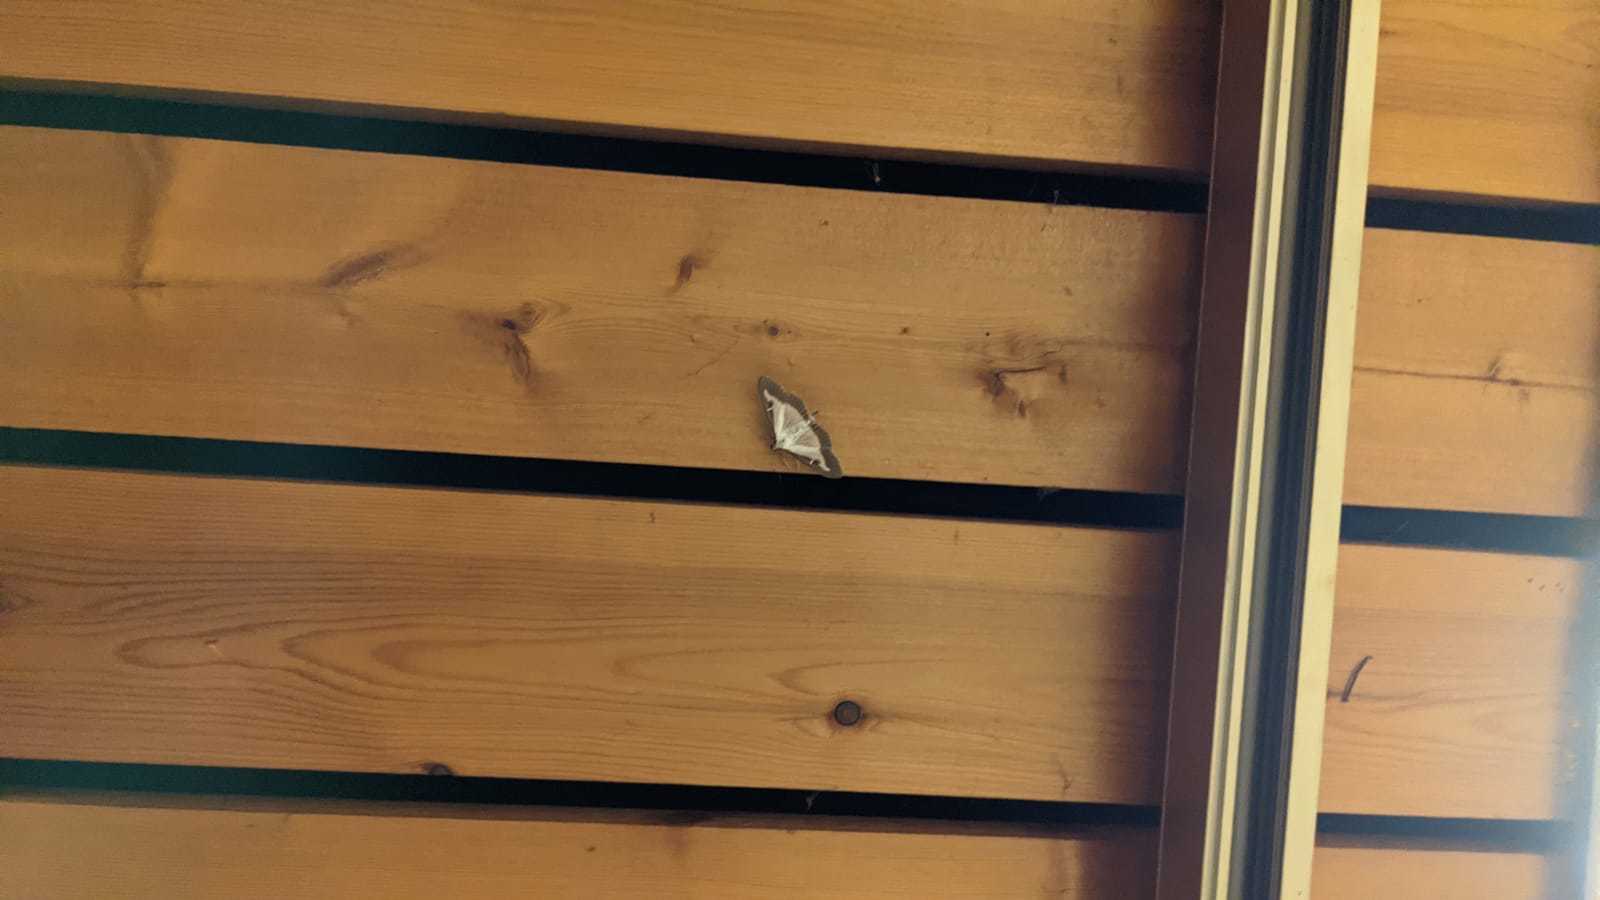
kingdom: Animalia
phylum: Arthropoda
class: Insecta
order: Lepidoptera
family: Crambidae
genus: Cydalima
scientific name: Cydalima perspectalis
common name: Box tree moth
